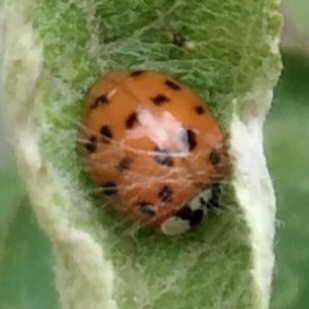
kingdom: Animalia
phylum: Arthropoda
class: Insecta
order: Coleoptera
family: Coccinellidae
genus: Harmonia
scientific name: Harmonia axyridis
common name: Harlequin ladybird
